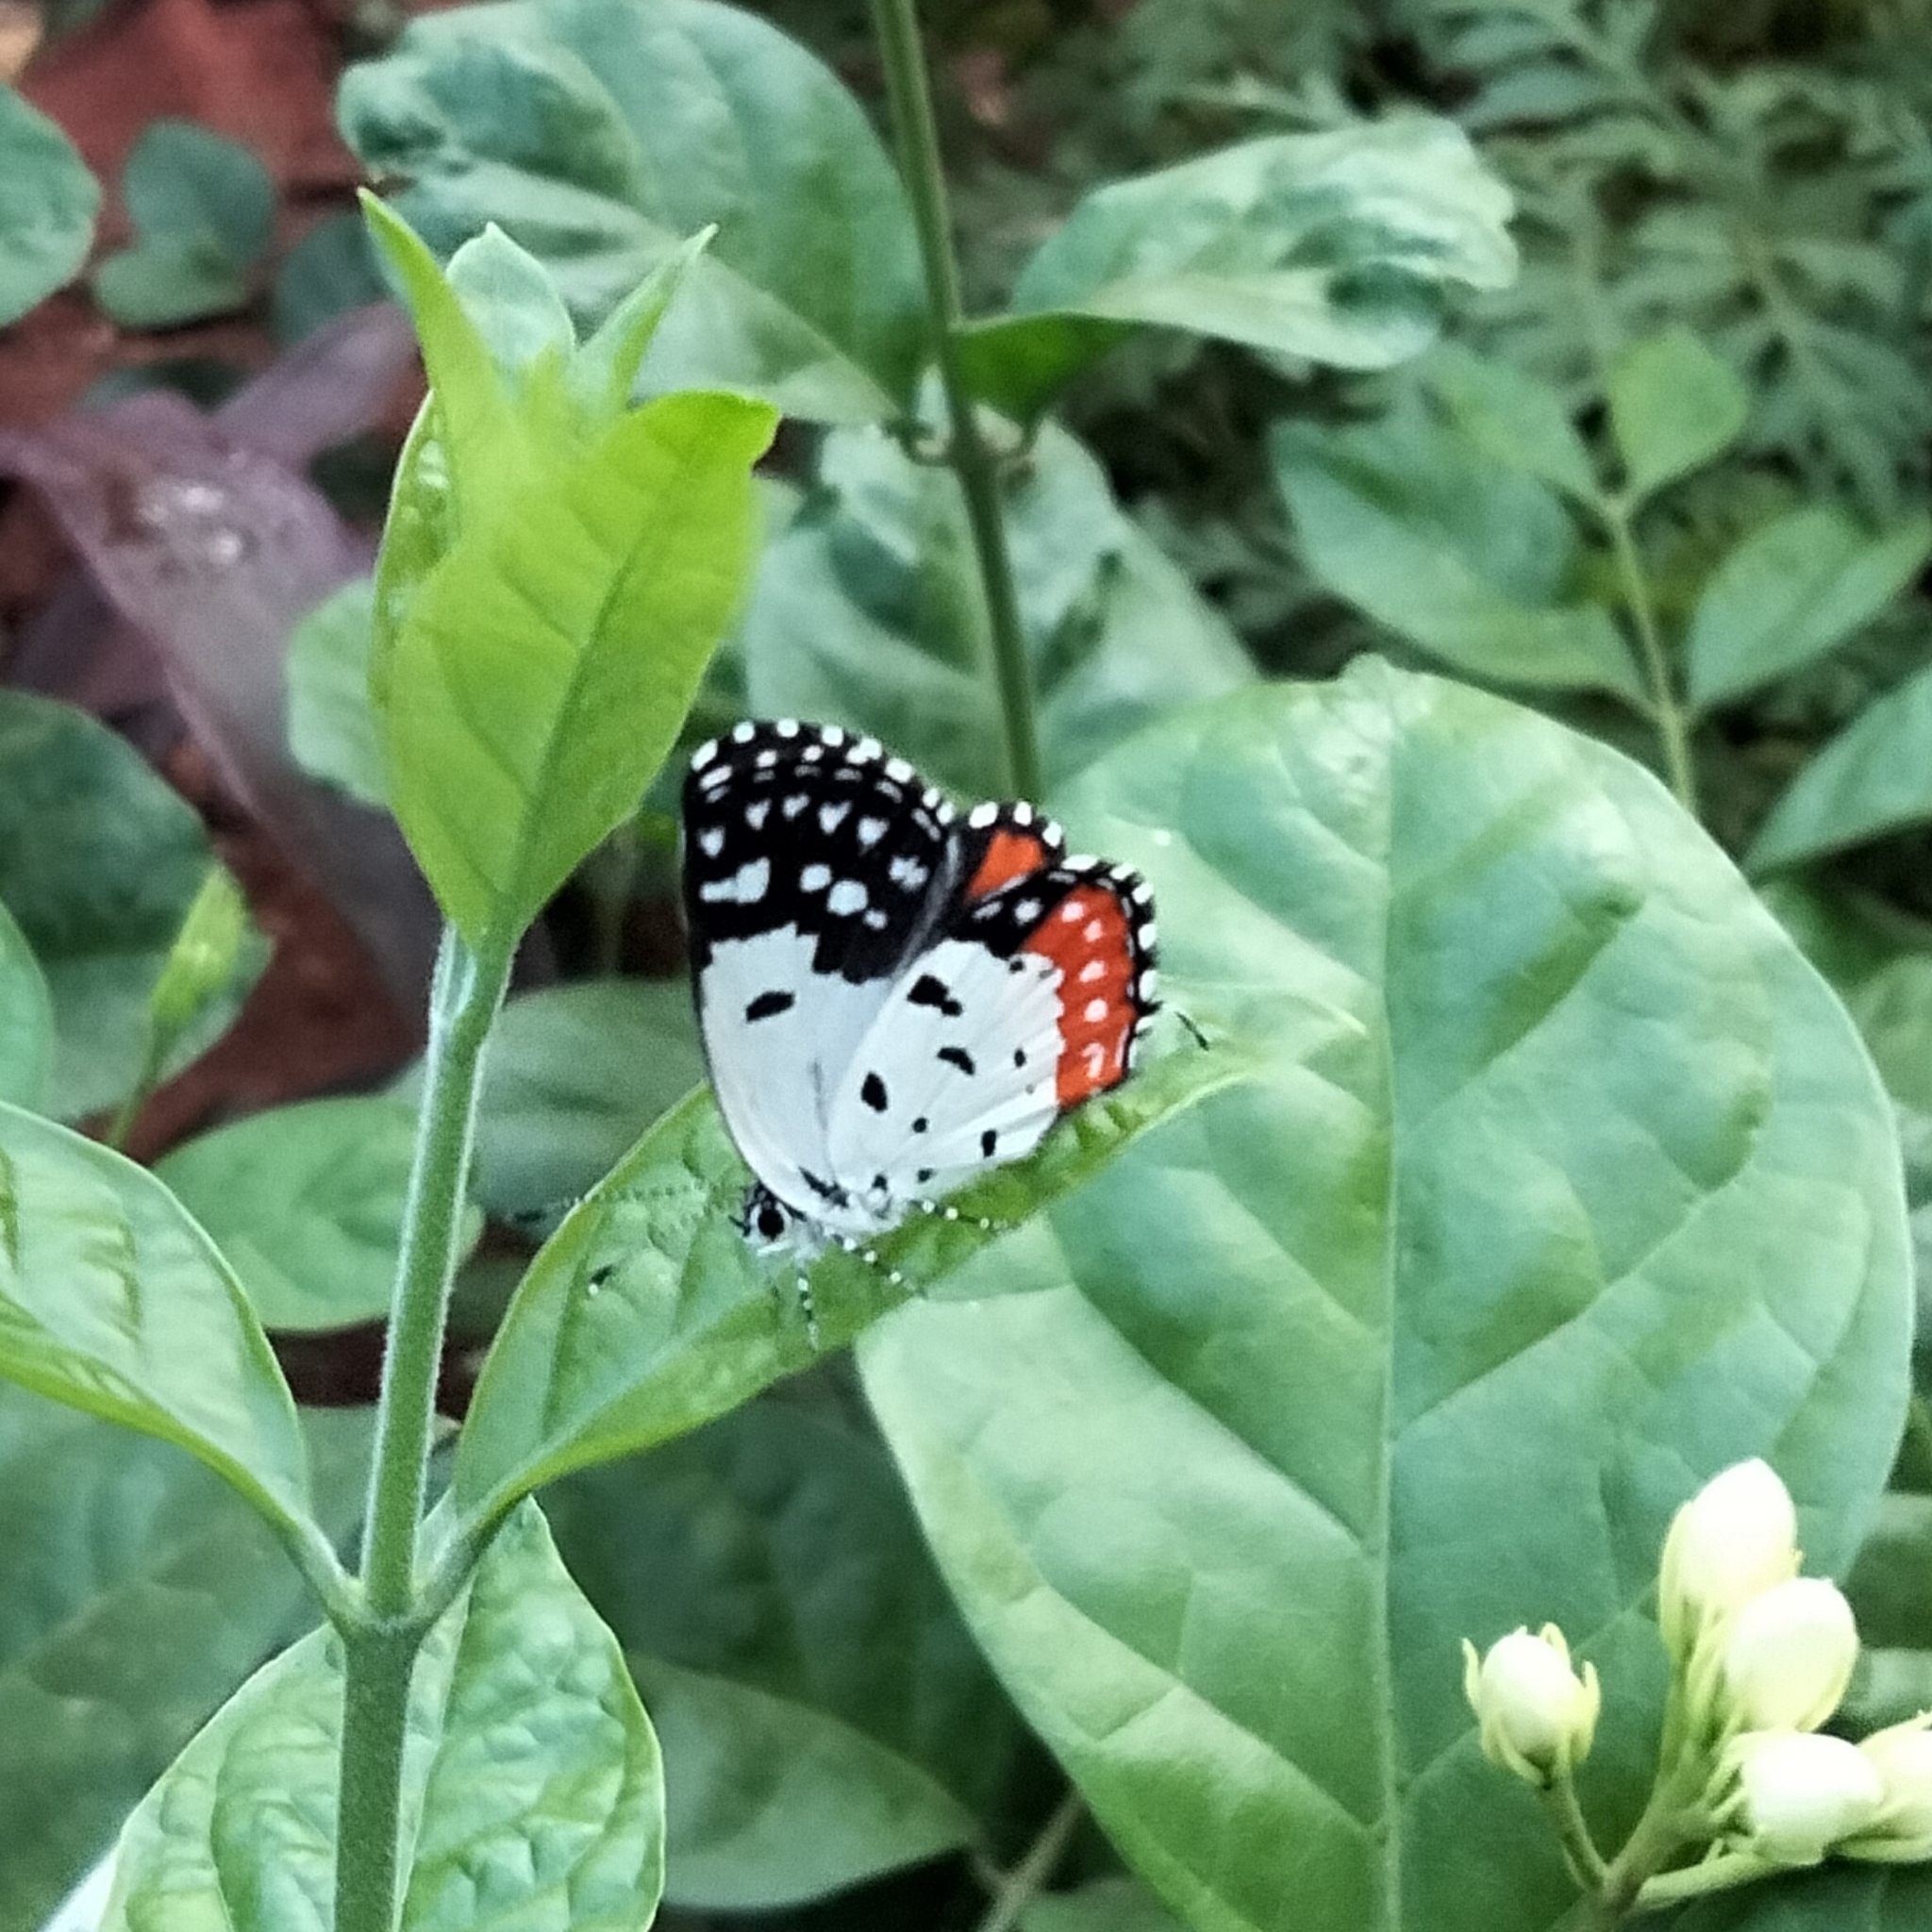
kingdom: Animalia
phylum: Arthropoda
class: Insecta
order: Lepidoptera
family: Lycaenidae
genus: Talicada
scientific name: Talicada nyseus
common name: Red pierrot
